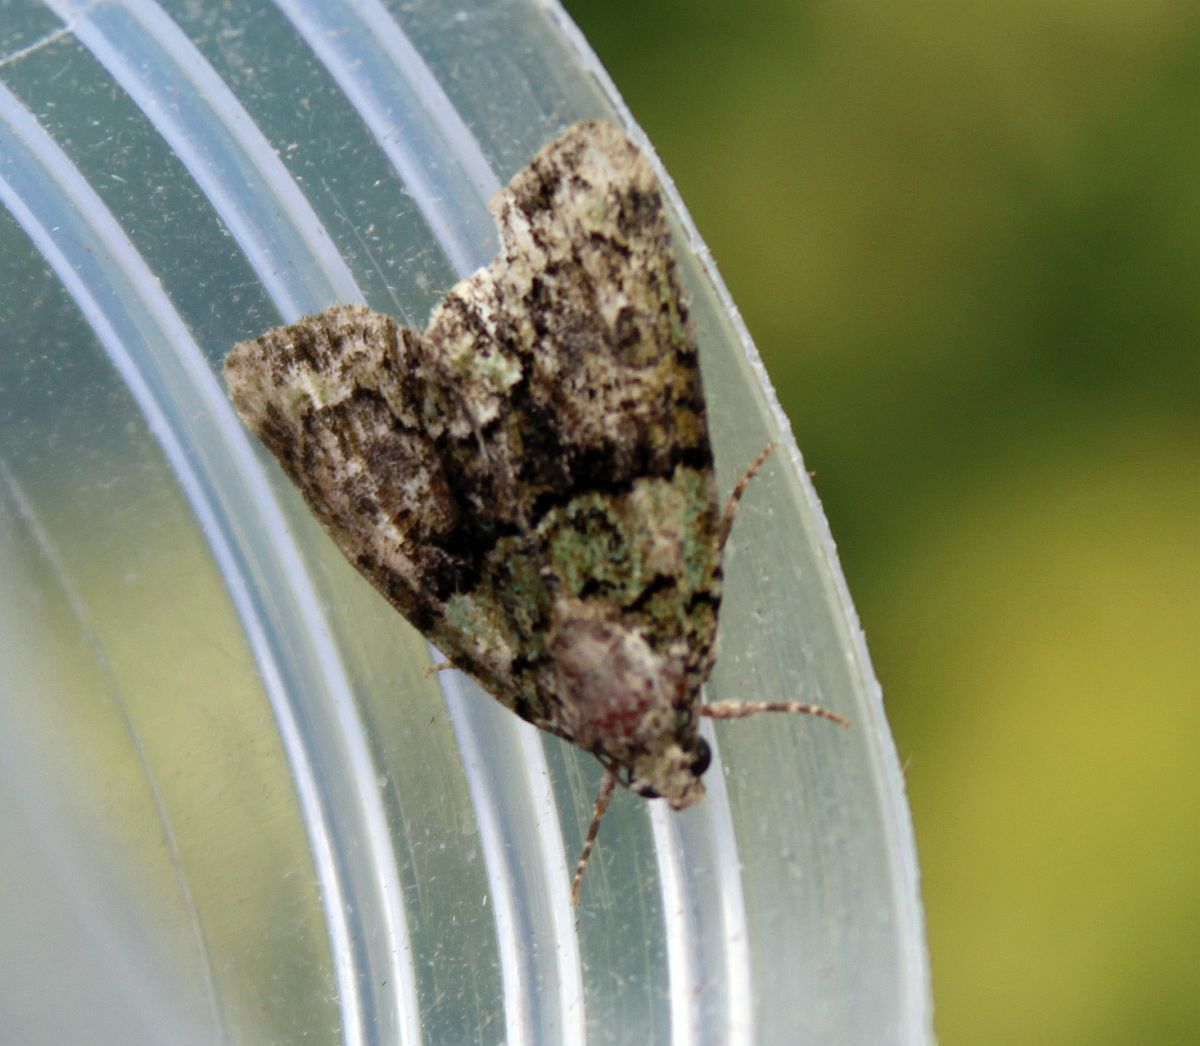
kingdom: Animalia
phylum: Arthropoda
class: Insecta
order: Lepidoptera
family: Noctuidae
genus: Cryphia
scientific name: Cryphia algae
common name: Tree-lichen beauty
